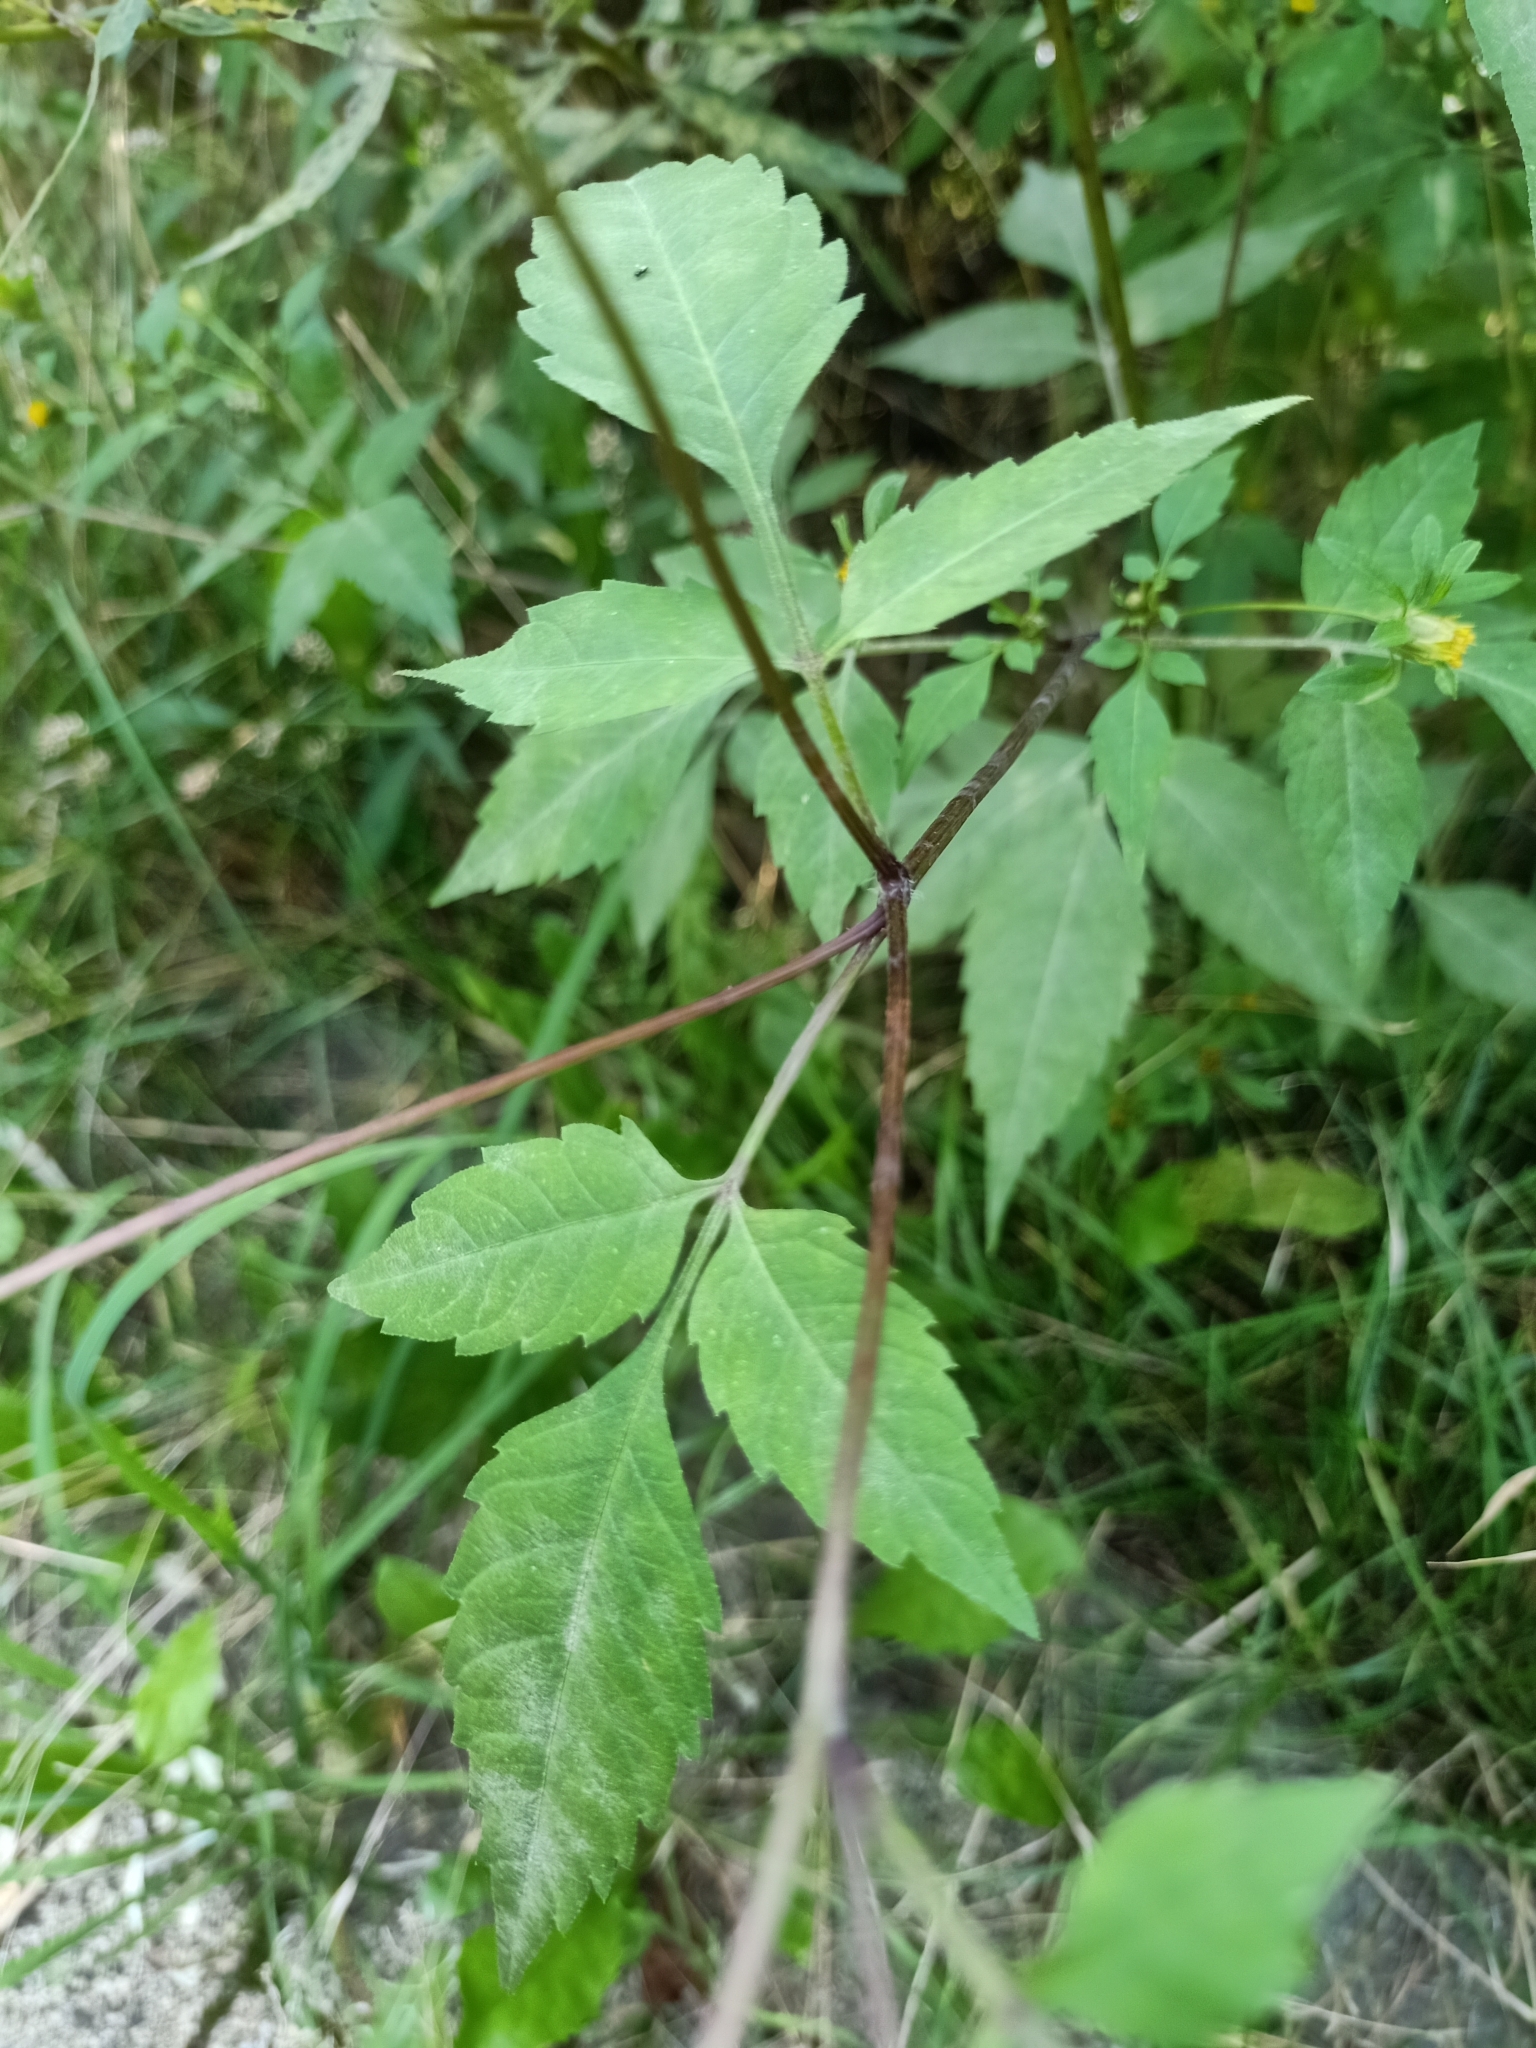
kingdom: Plantae
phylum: Tracheophyta
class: Magnoliopsida
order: Asterales
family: Asteraceae
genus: Bidens
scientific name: Bidens frondosa
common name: Beggarticks
